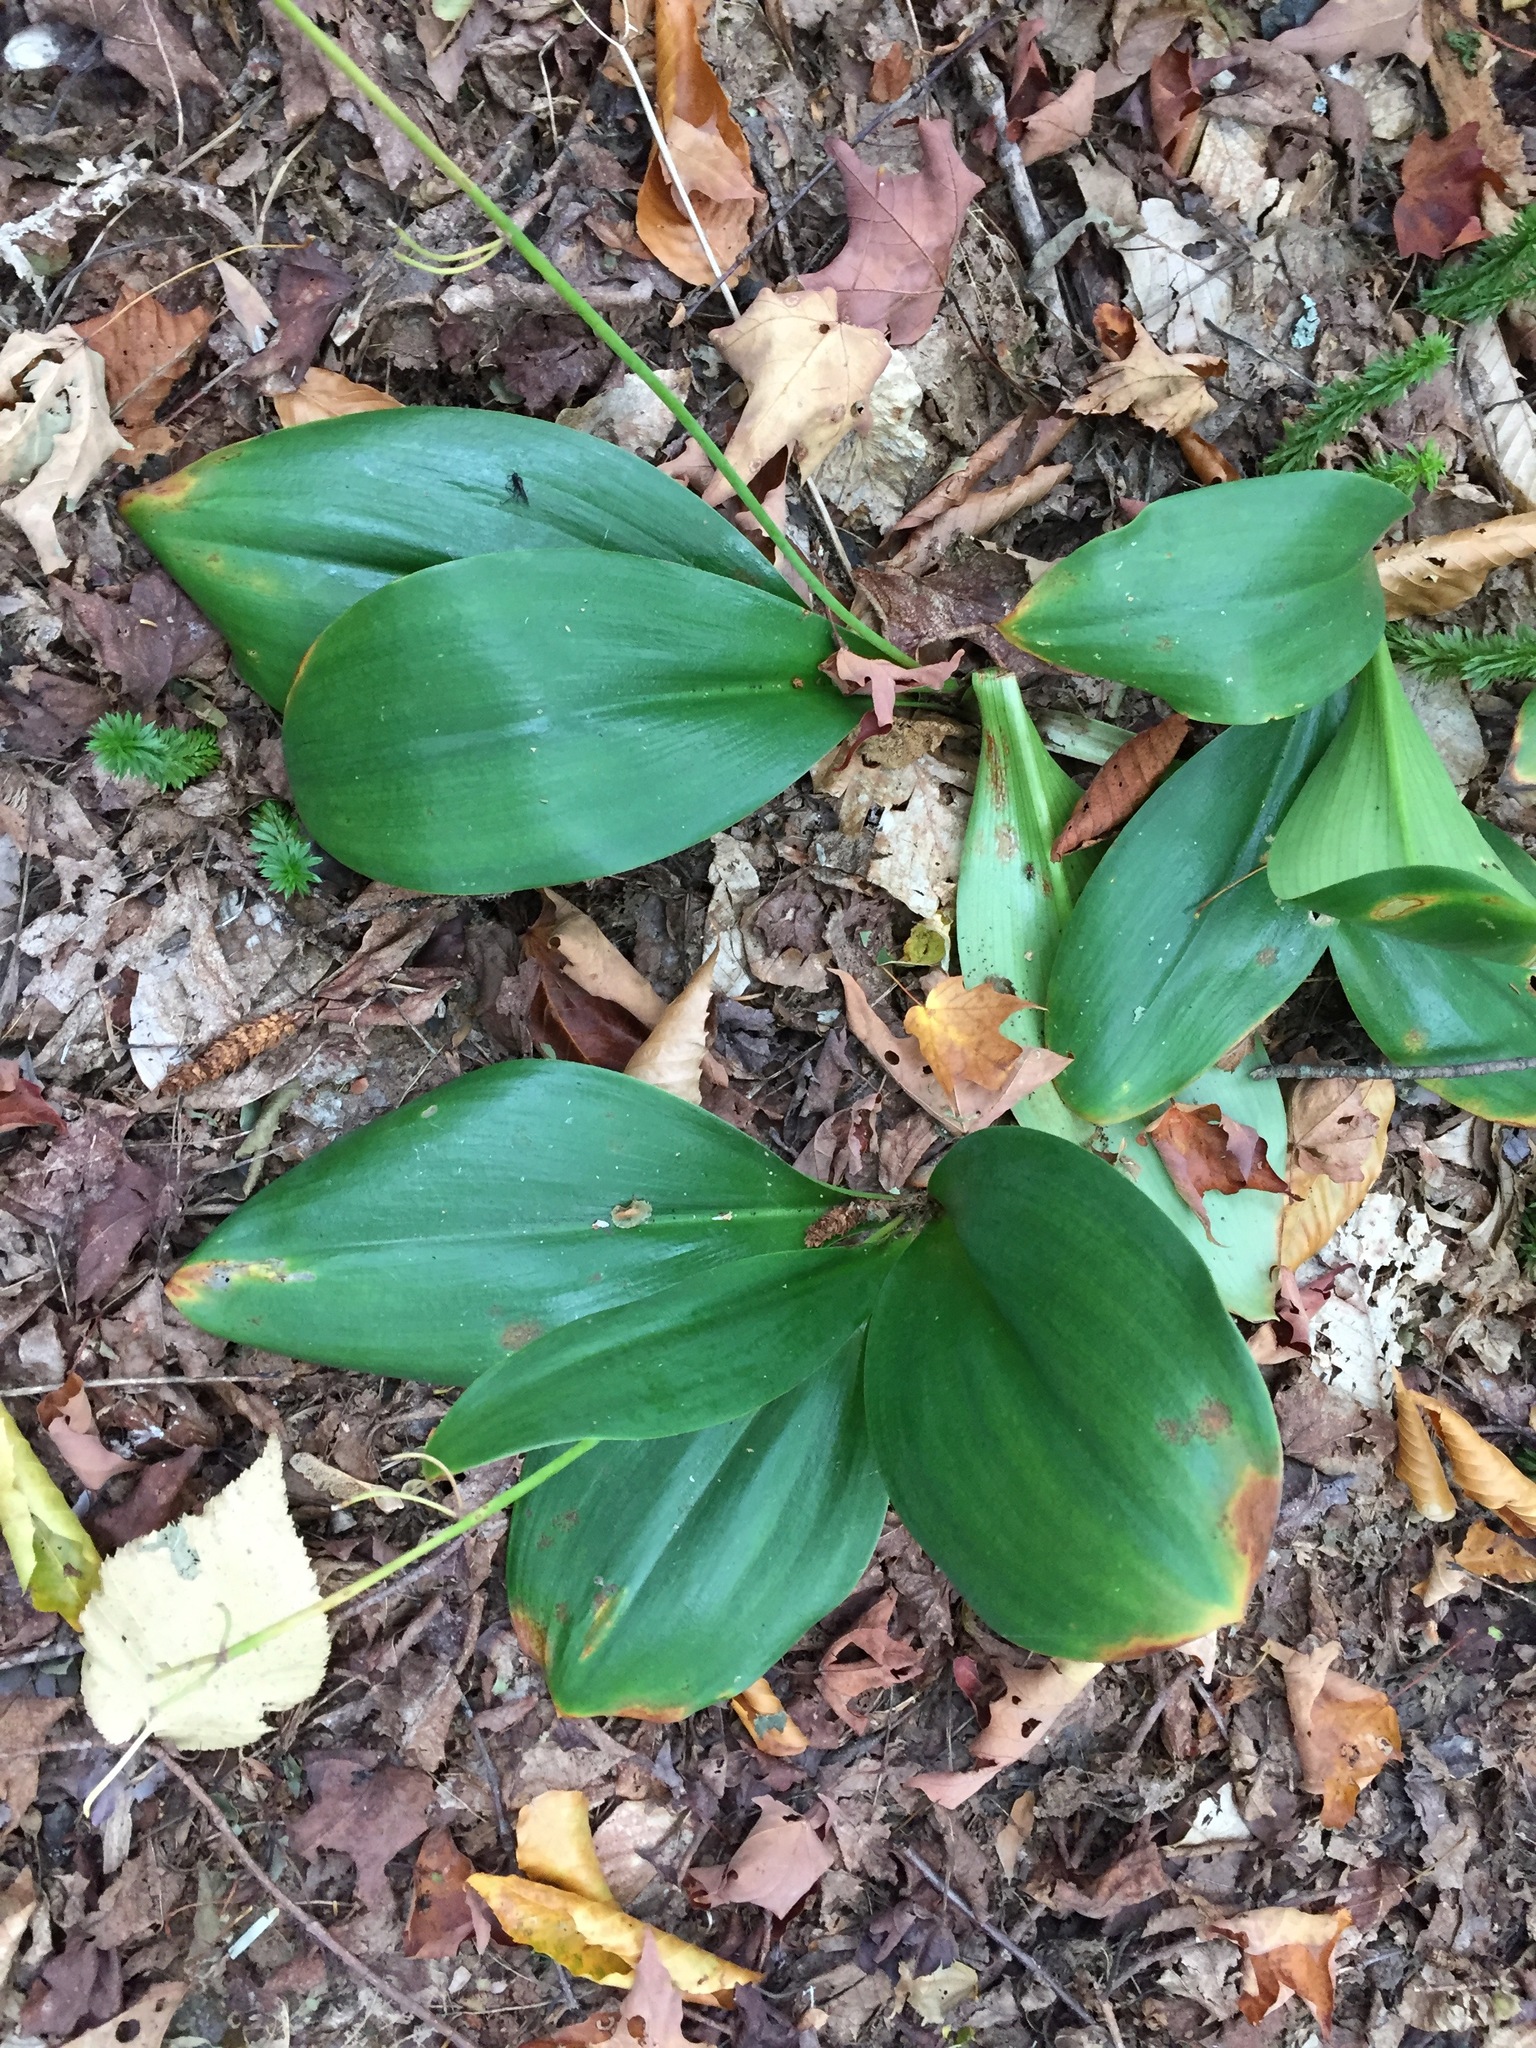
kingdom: Plantae
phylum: Tracheophyta
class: Liliopsida
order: Liliales
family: Liliaceae
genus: Clintonia
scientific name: Clintonia borealis
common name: Yellow clintonia
